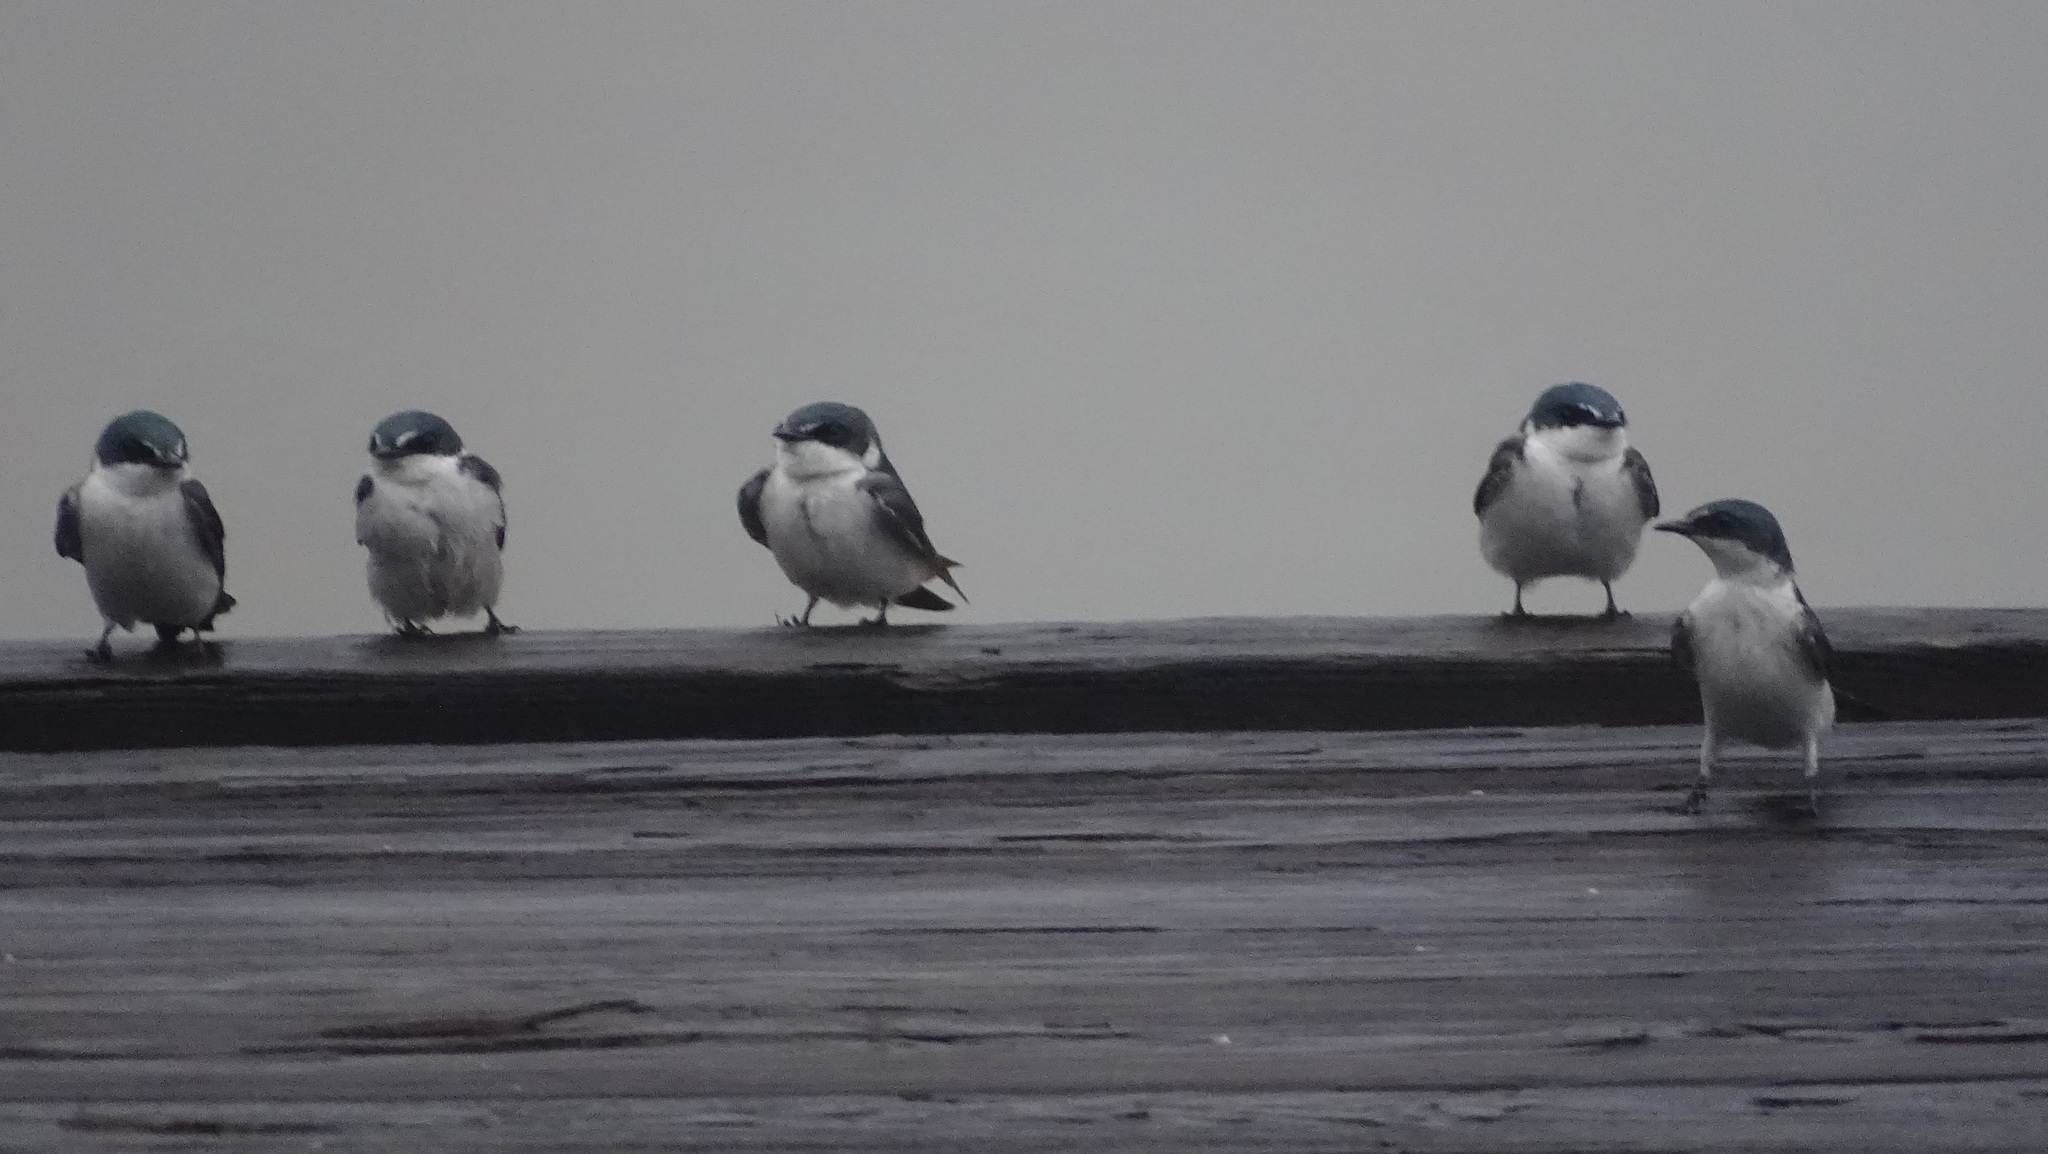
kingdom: Animalia
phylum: Chordata
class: Aves
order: Passeriformes
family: Hirundinidae
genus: Tachycineta
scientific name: Tachycineta albilinea
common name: Mangrove swallow
